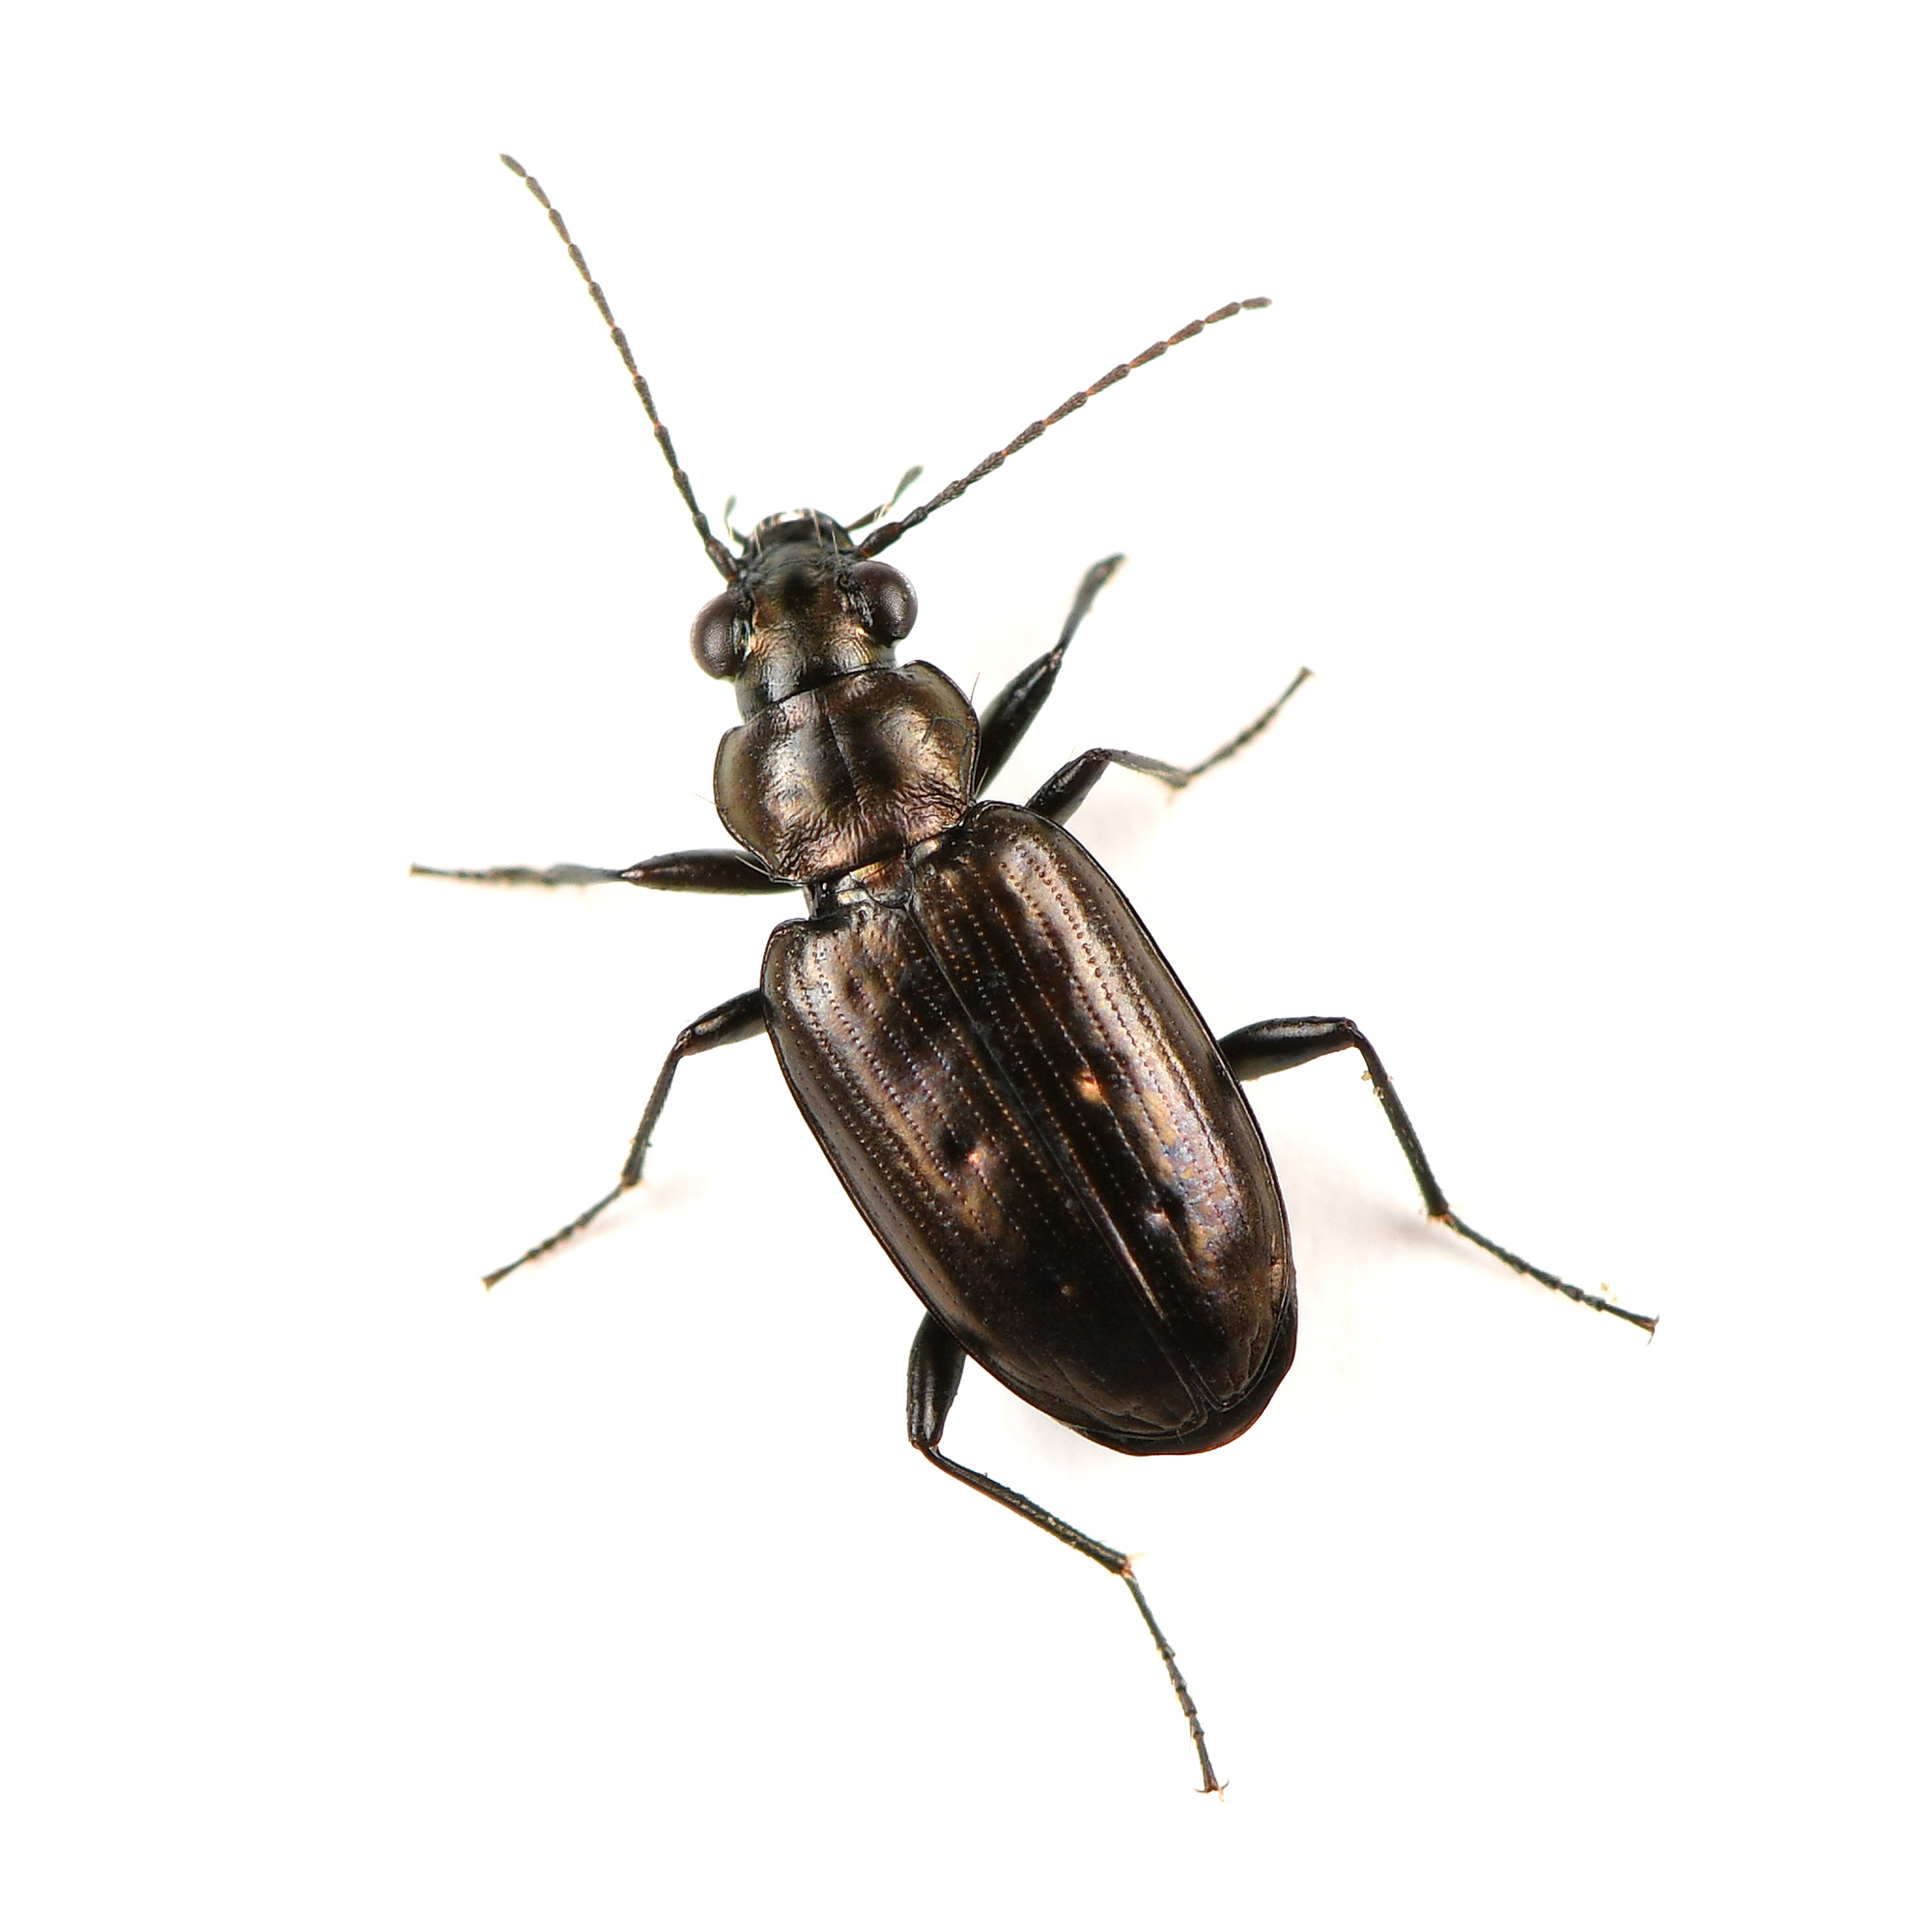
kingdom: Animalia
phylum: Arthropoda
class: Insecta
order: Coleoptera
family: Carabidae
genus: Bembidion
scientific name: Bembidion bifossulatum
